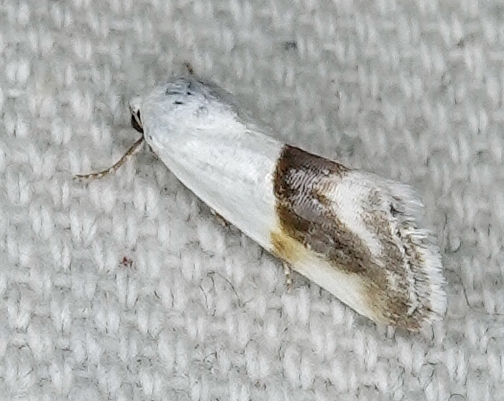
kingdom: Animalia
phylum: Arthropoda
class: Insecta
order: Lepidoptera
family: Noctuidae
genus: Acontia
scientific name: Acontia binocula
